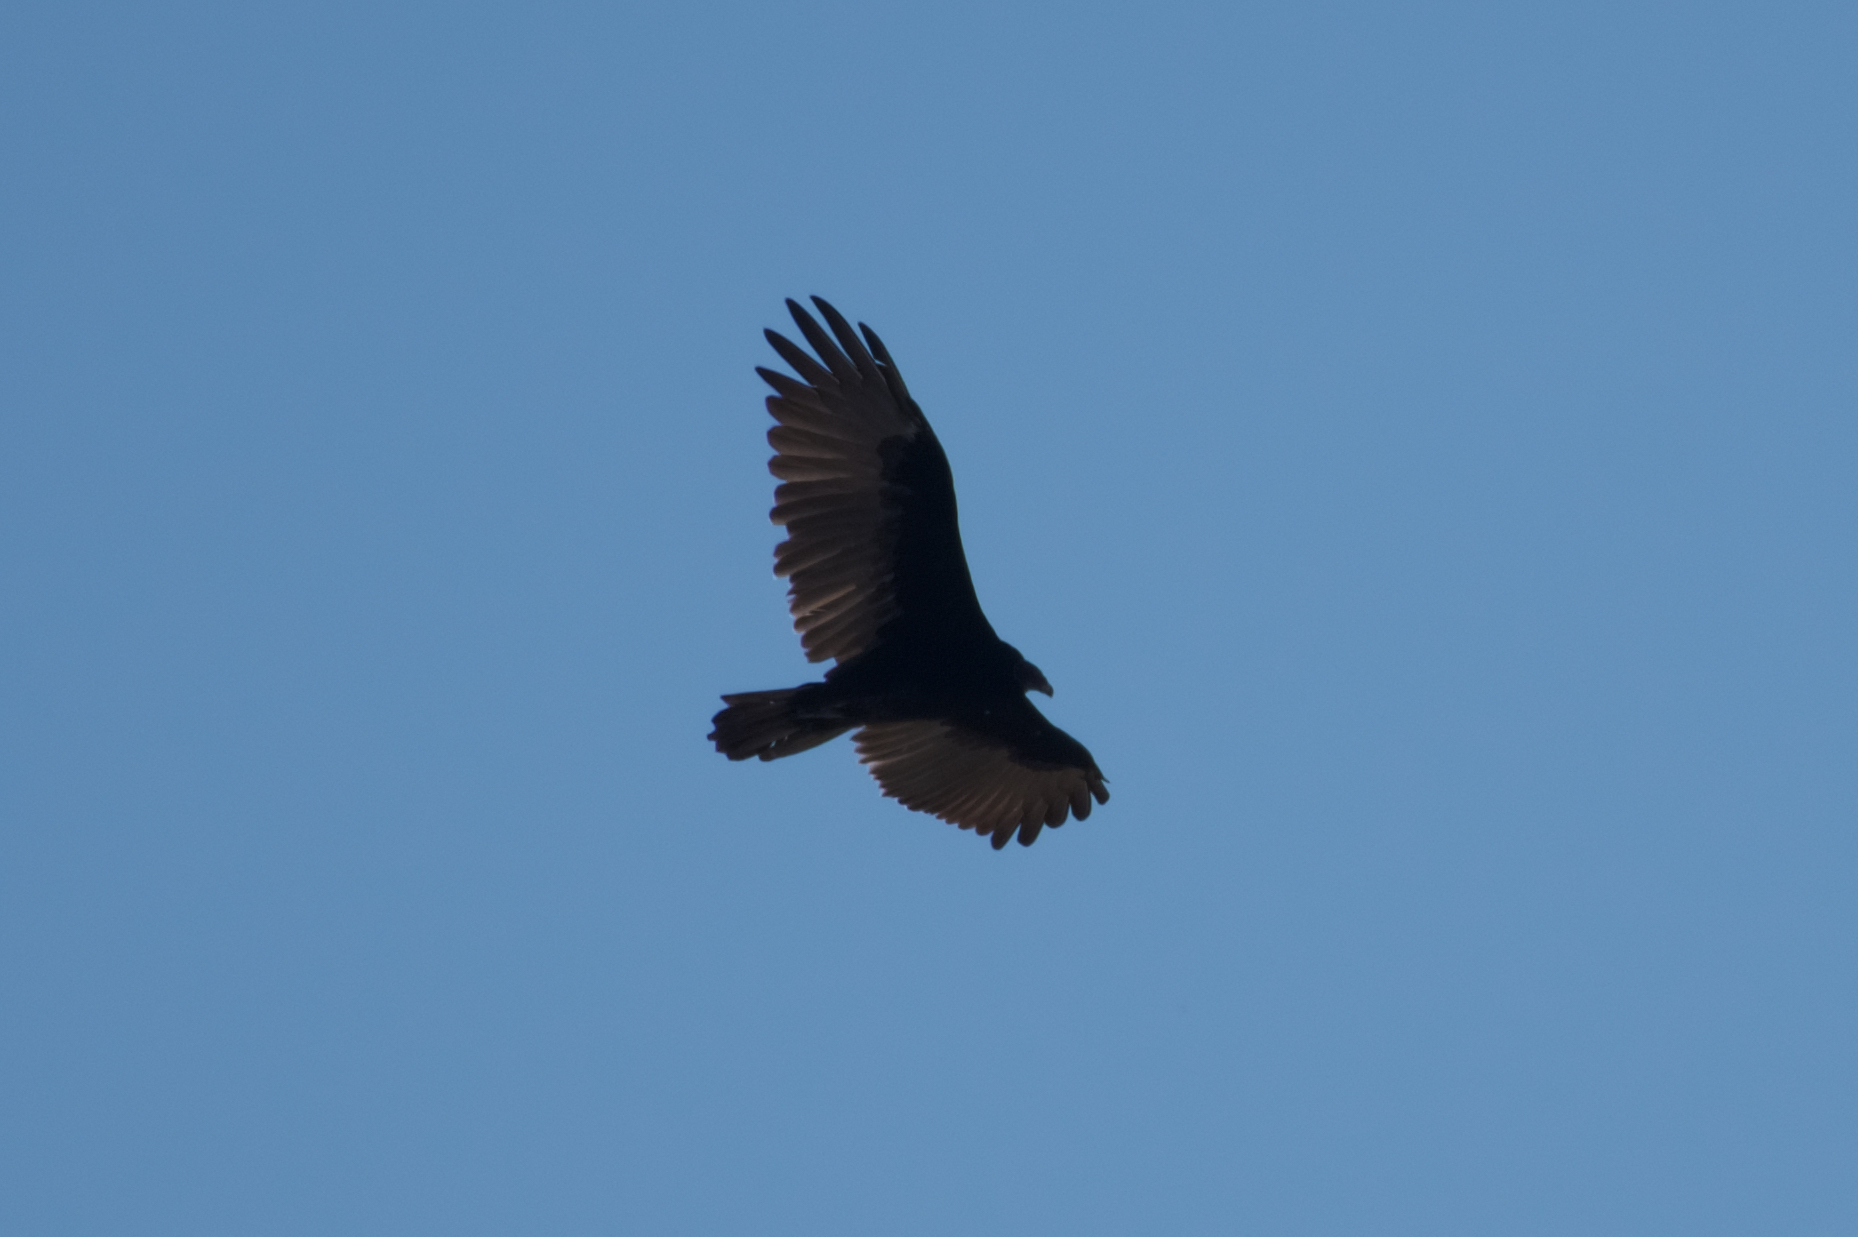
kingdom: Animalia
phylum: Chordata
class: Aves
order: Accipitriformes
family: Cathartidae
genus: Cathartes
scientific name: Cathartes aura
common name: Turkey vulture
